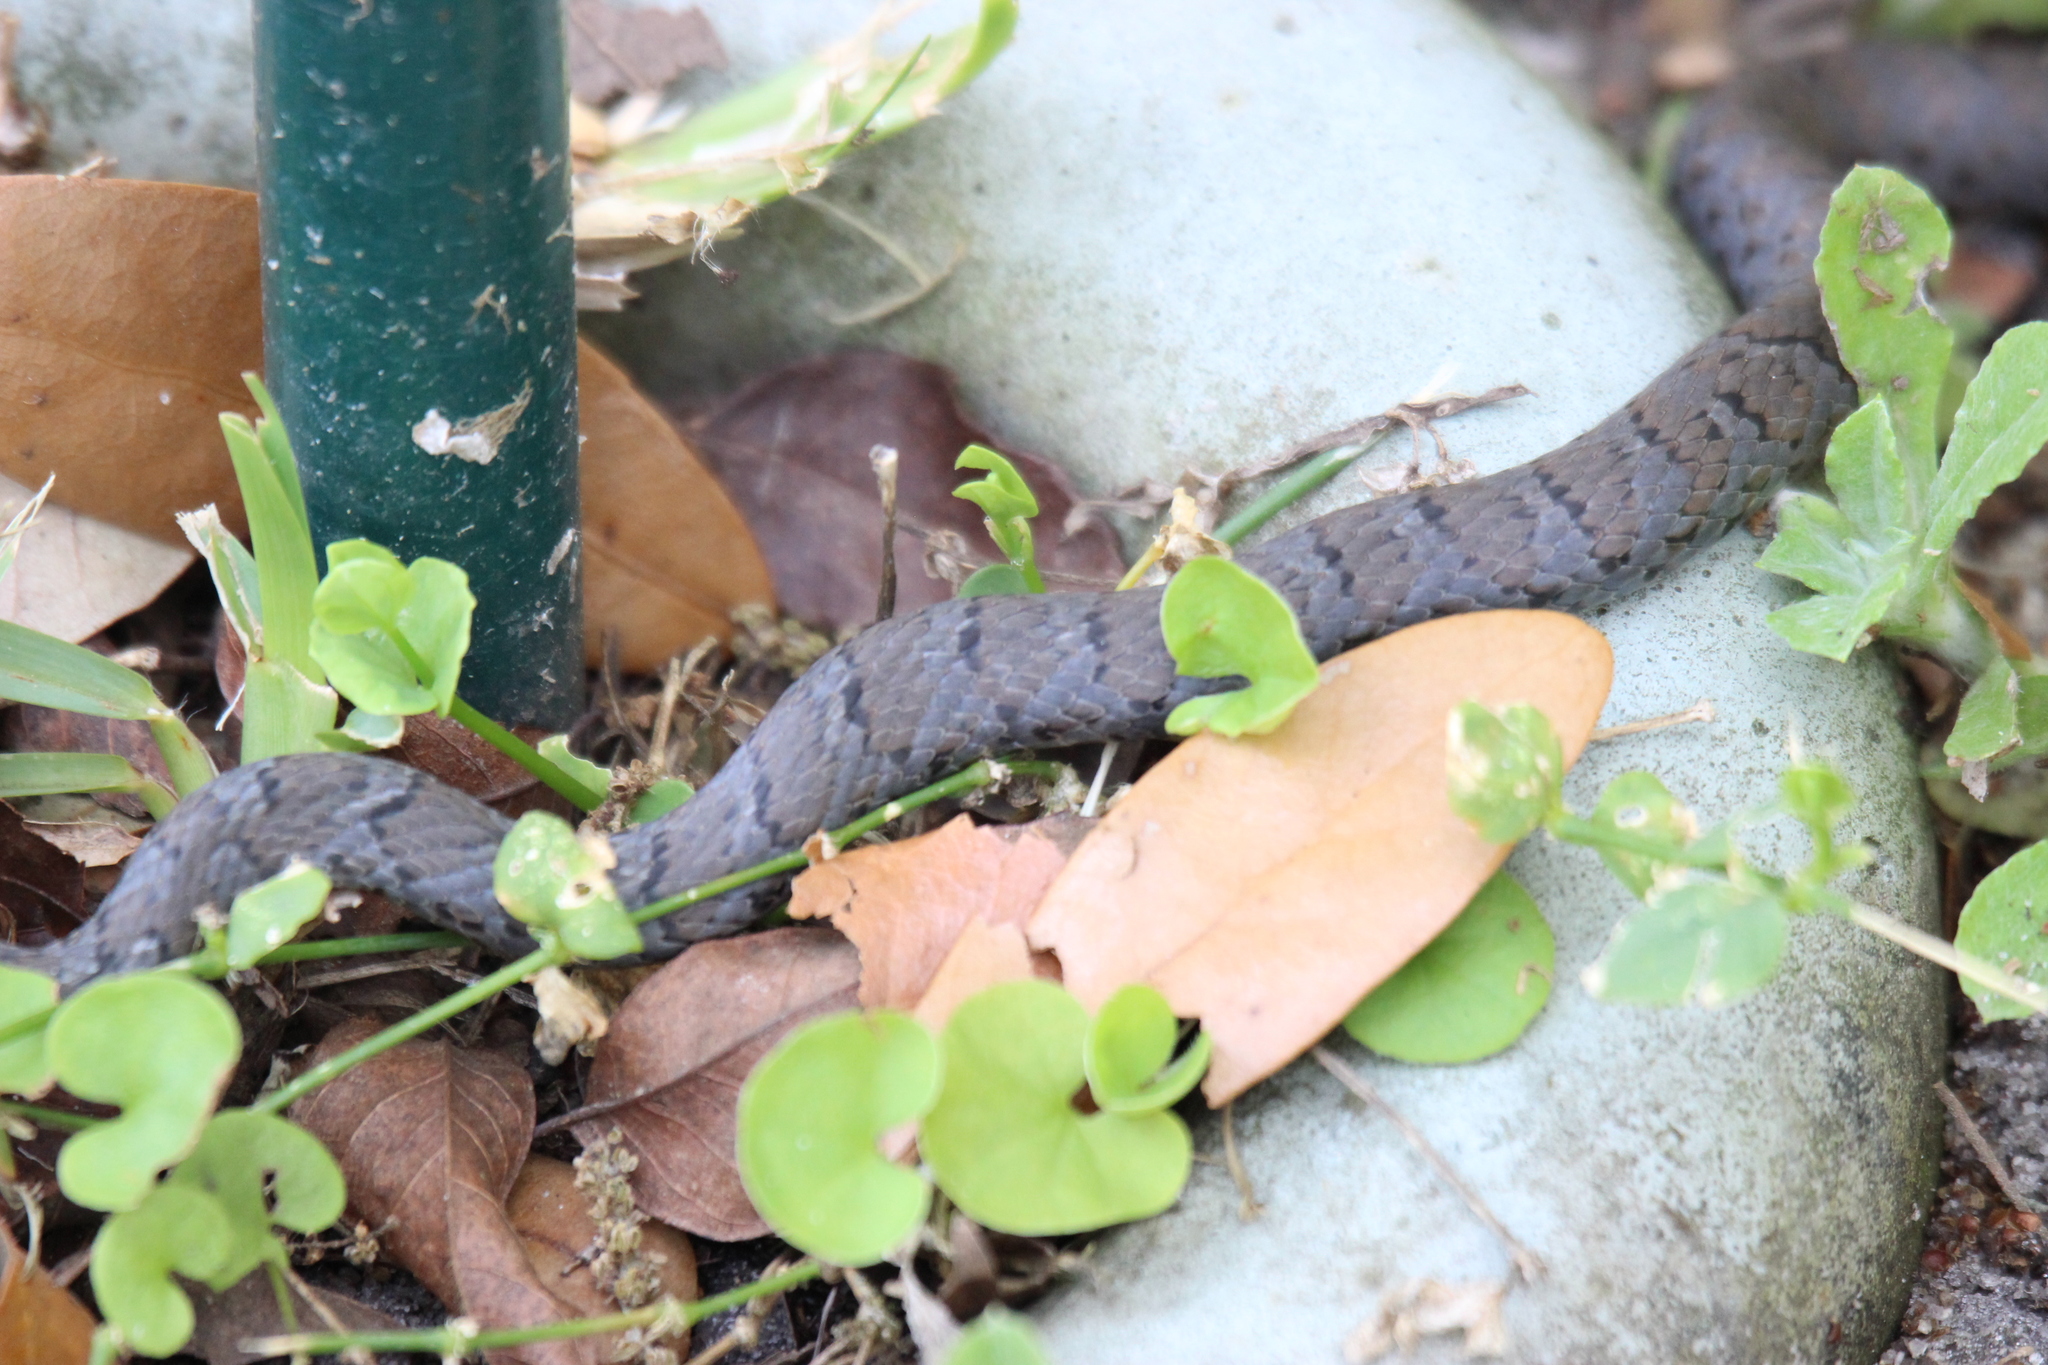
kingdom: Animalia
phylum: Chordata
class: Squamata
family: Colubridae
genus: Coluber
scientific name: Coluber constrictor
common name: Eastern racer
